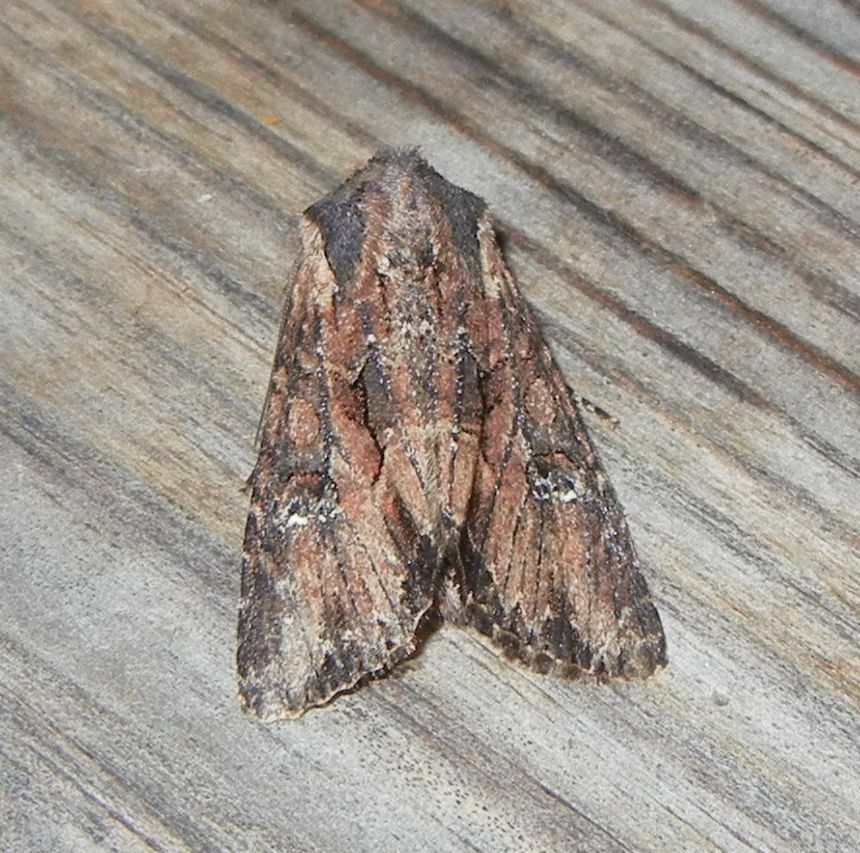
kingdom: Animalia
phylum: Arthropoda
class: Insecta
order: Lepidoptera
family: Noctuidae
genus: Mniotype
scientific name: Mniotype occidentalis
